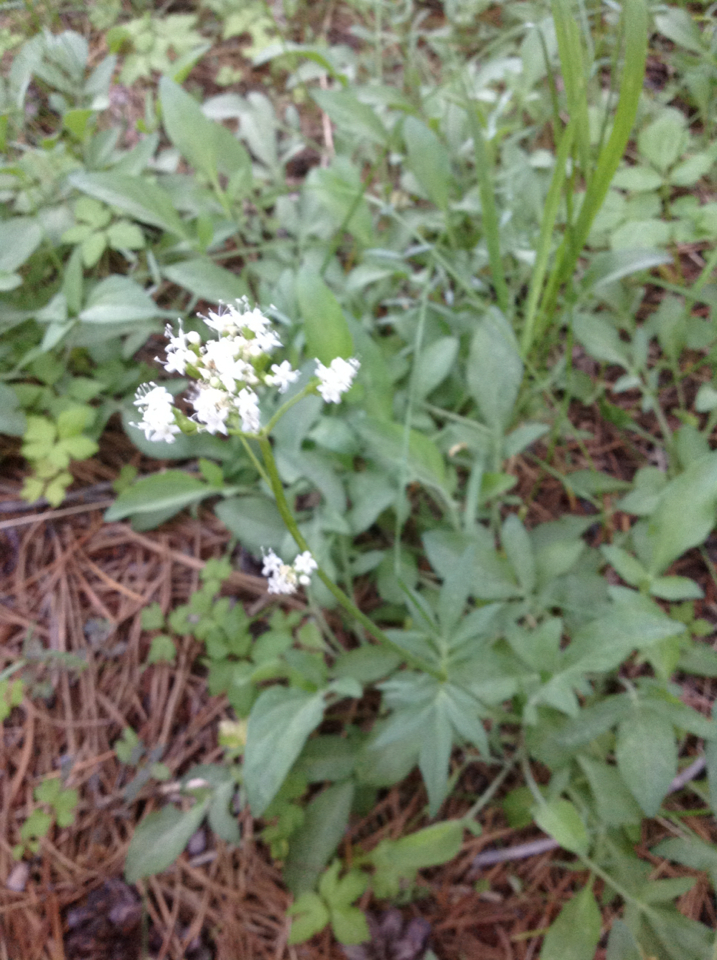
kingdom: Plantae
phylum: Tracheophyta
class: Magnoliopsida
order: Dipsacales
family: Caprifoliaceae
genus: Valeriana
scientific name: Valeriana californica
